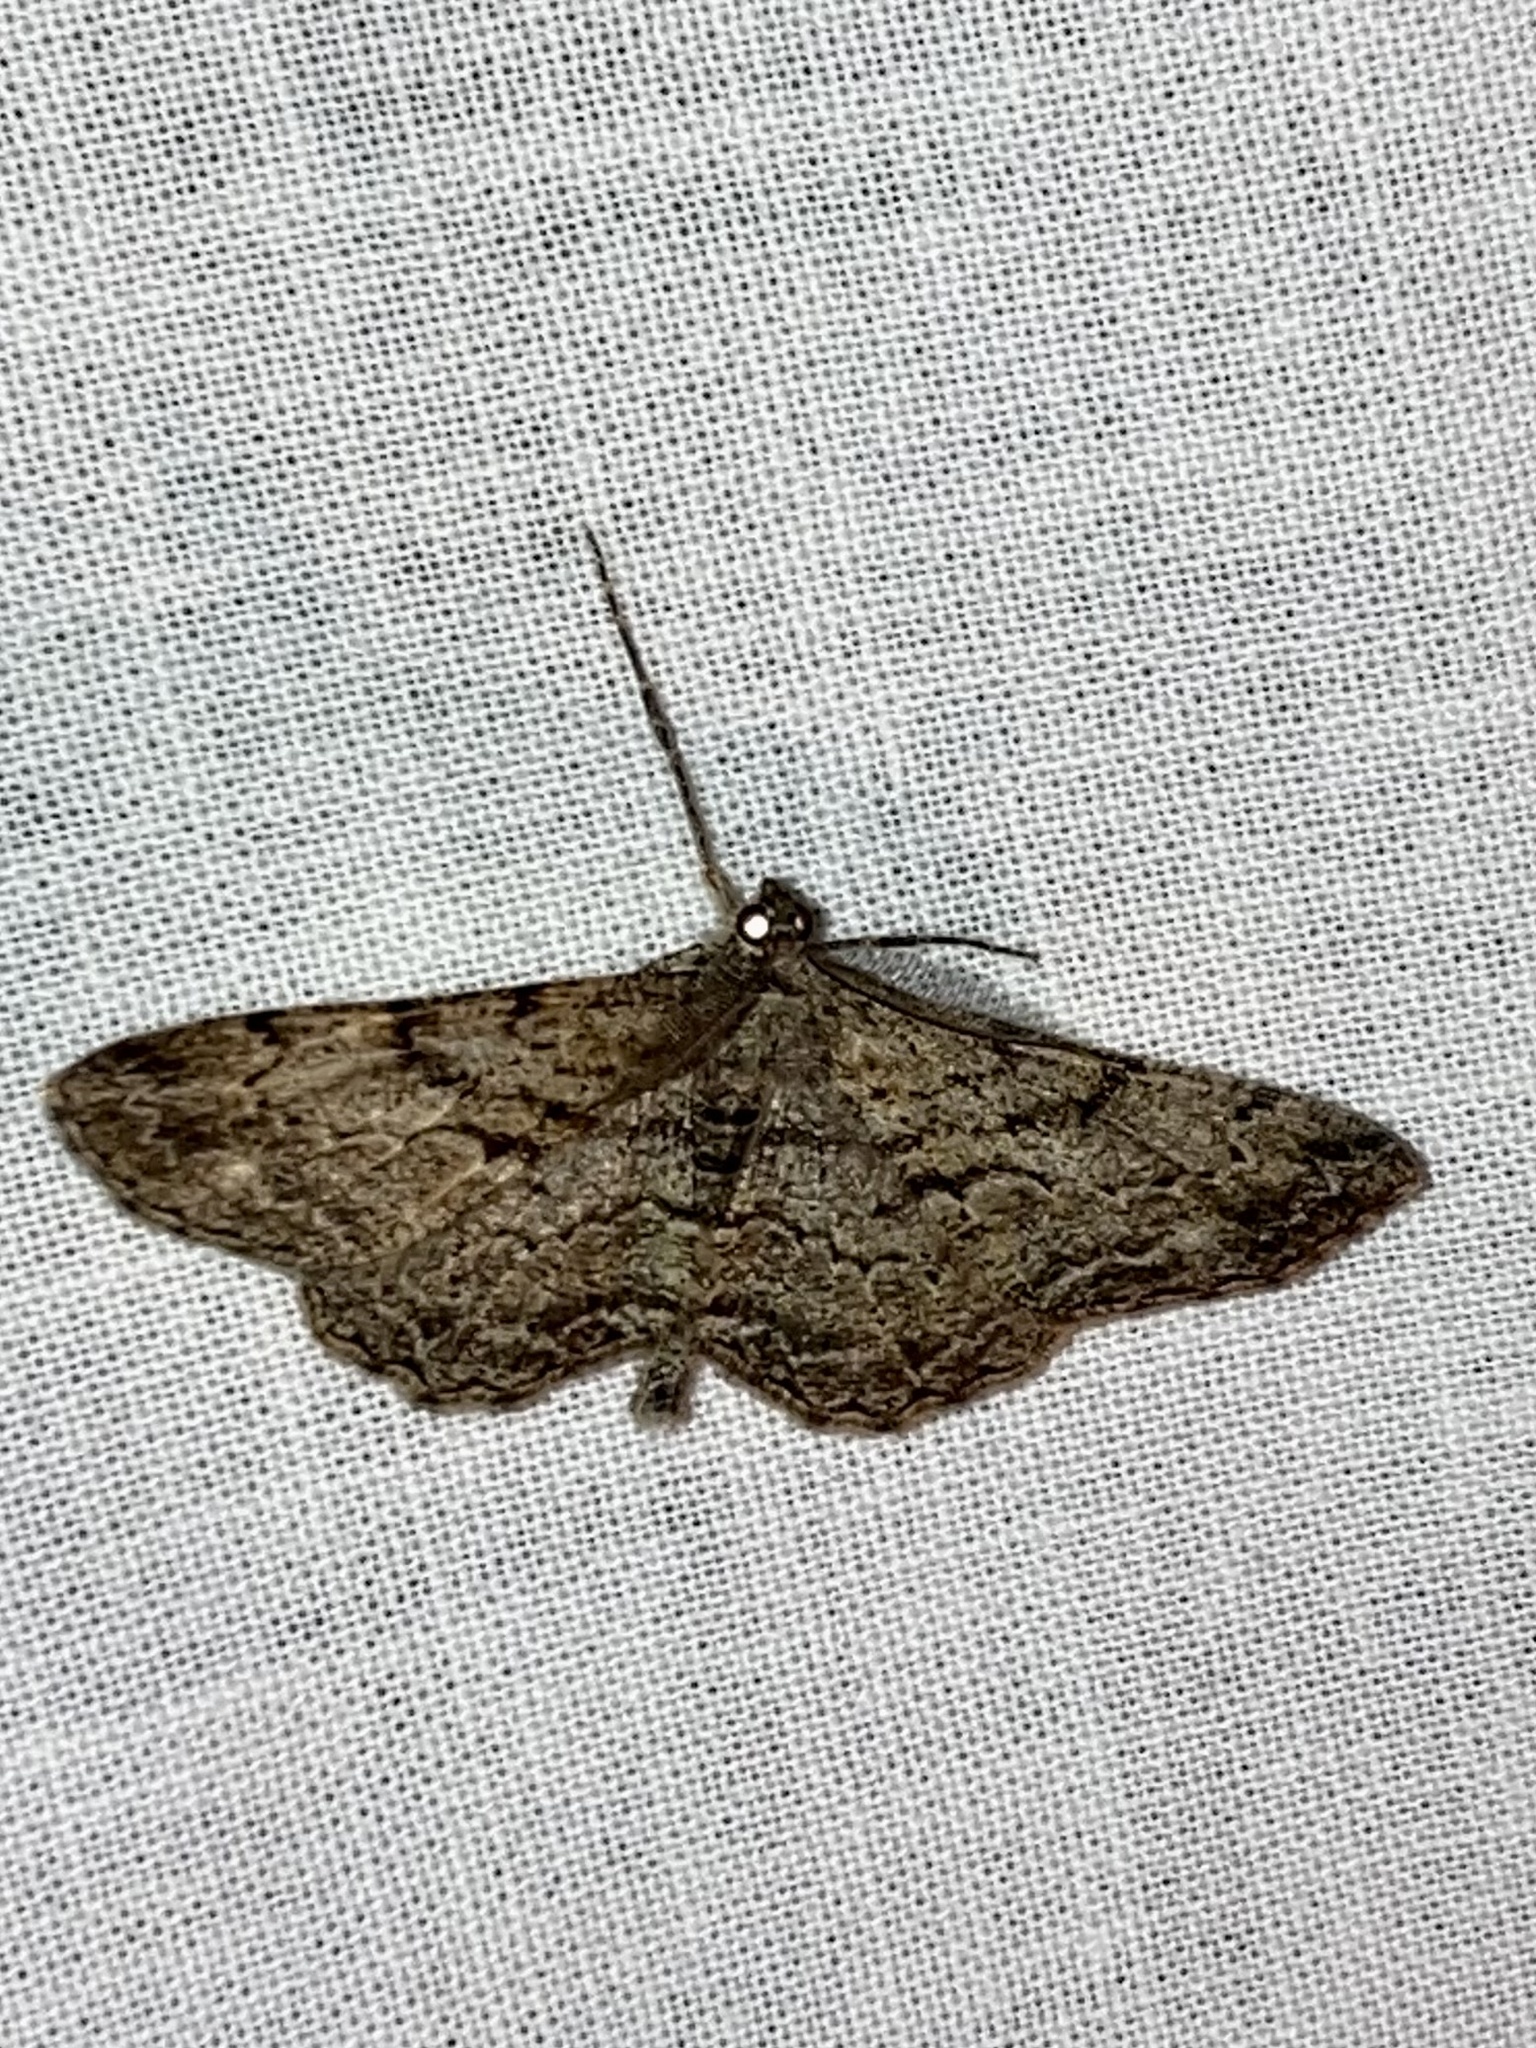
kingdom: Animalia
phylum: Arthropoda
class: Insecta
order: Lepidoptera
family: Geometridae
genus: Peribatodes
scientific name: Peribatodes rhomboidaria
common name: Willow beauty
